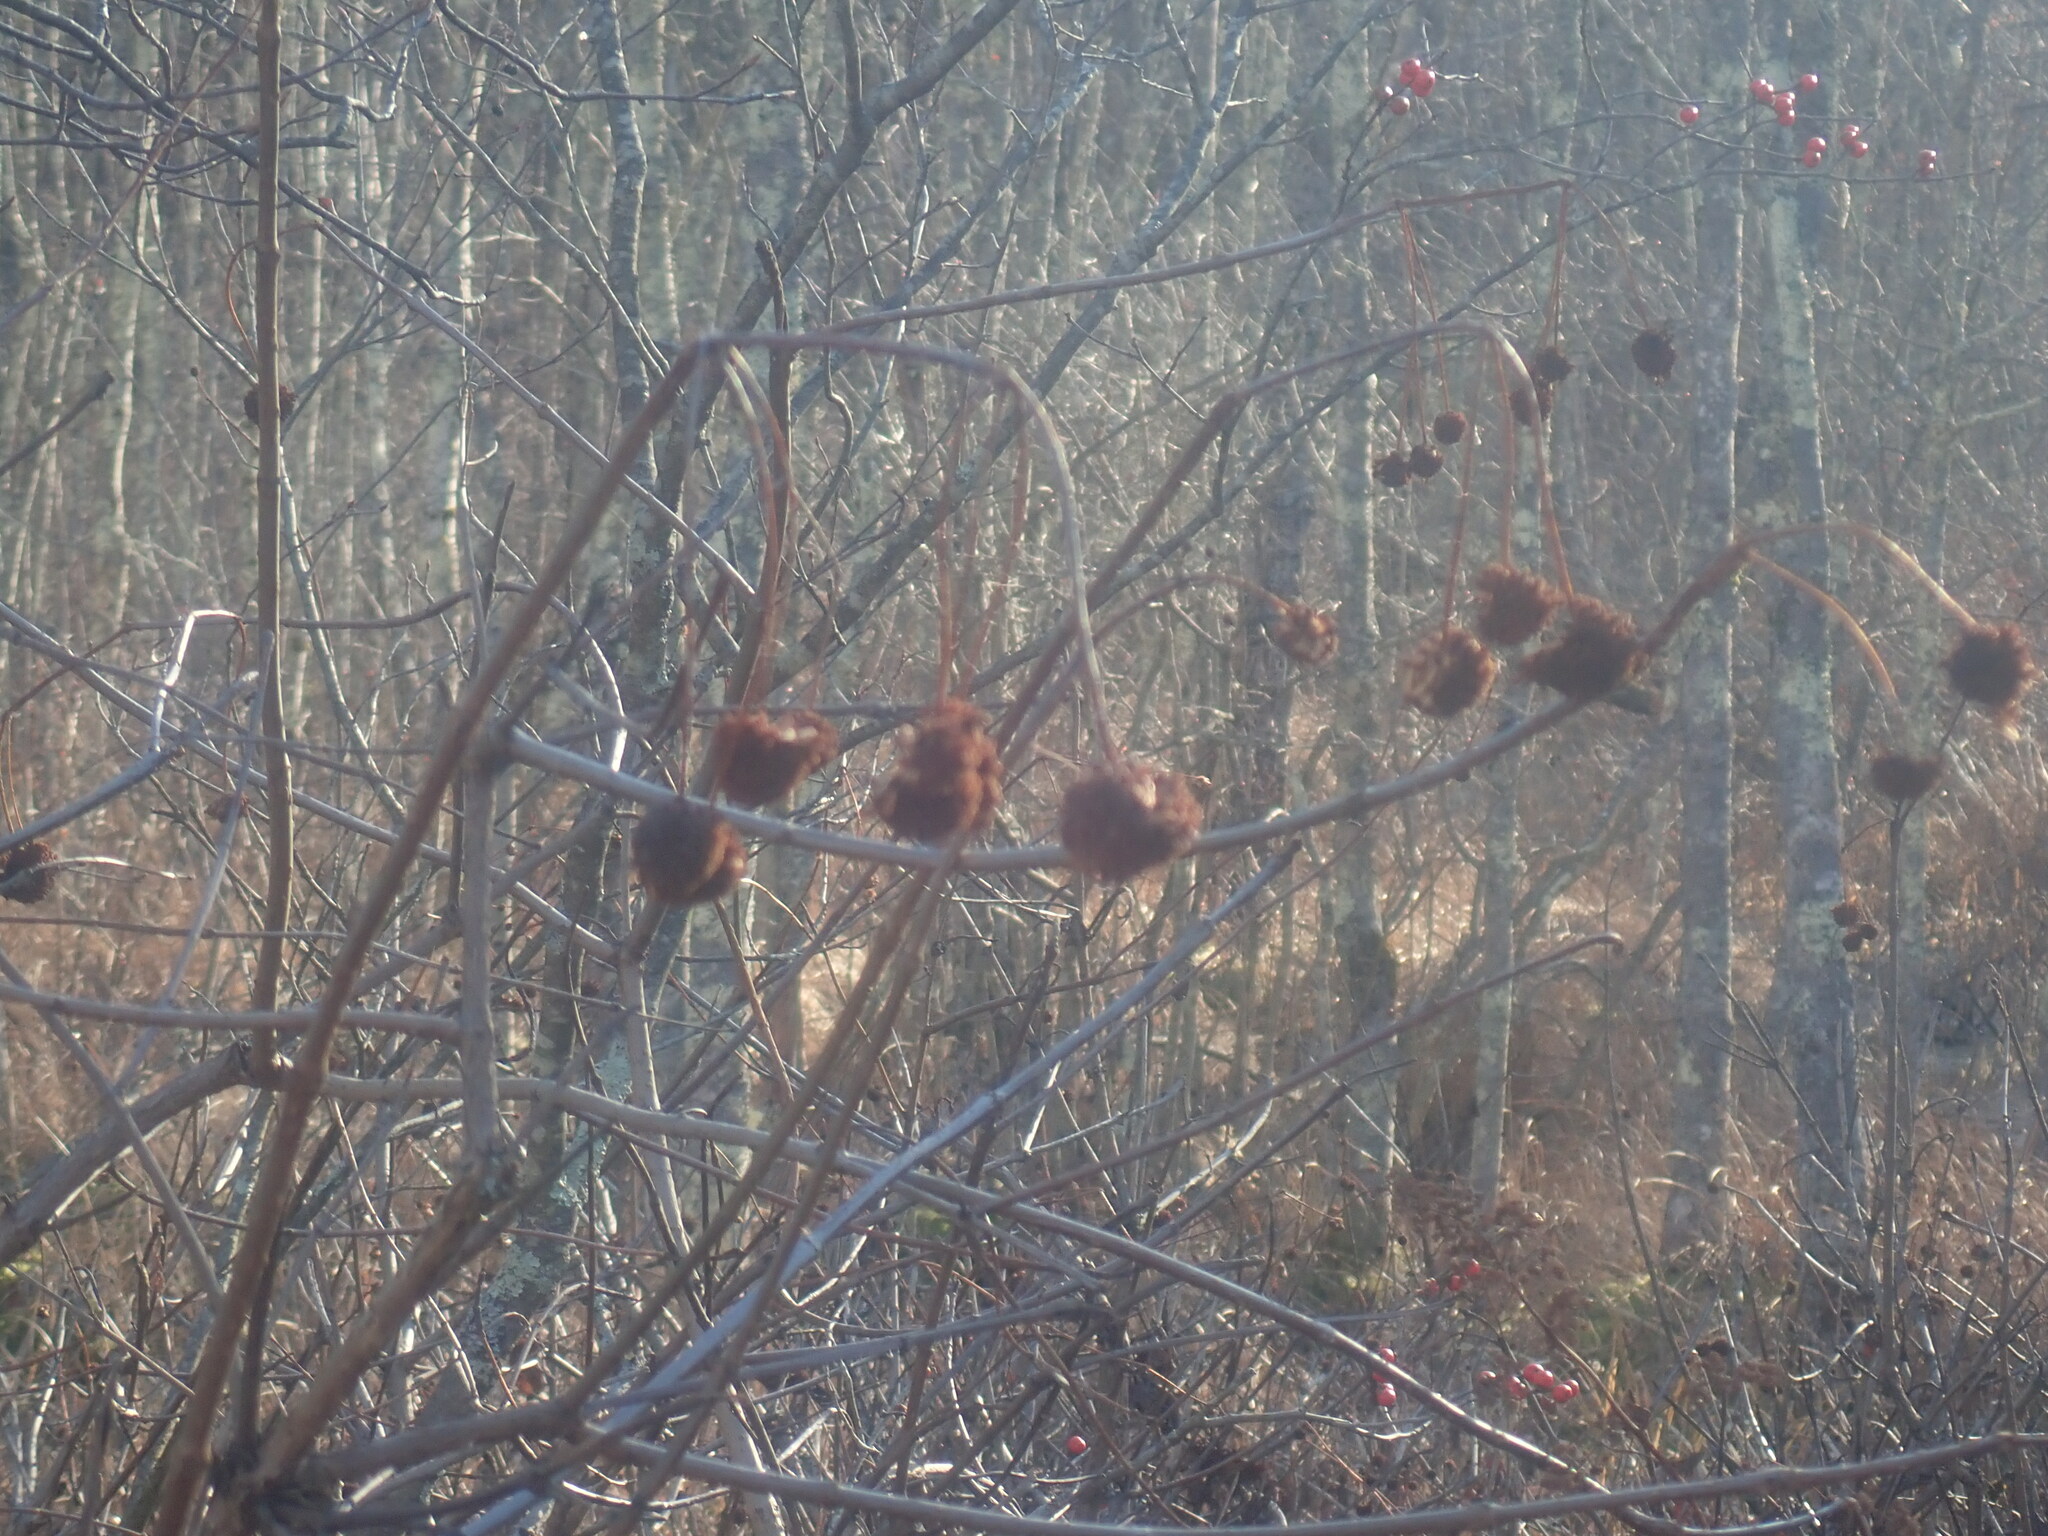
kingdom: Plantae
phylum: Tracheophyta
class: Magnoliopsida
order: Gentianales
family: Rubiaceae
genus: Cephalanthus
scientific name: Cephalanthus occidentalis
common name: Button-willow
